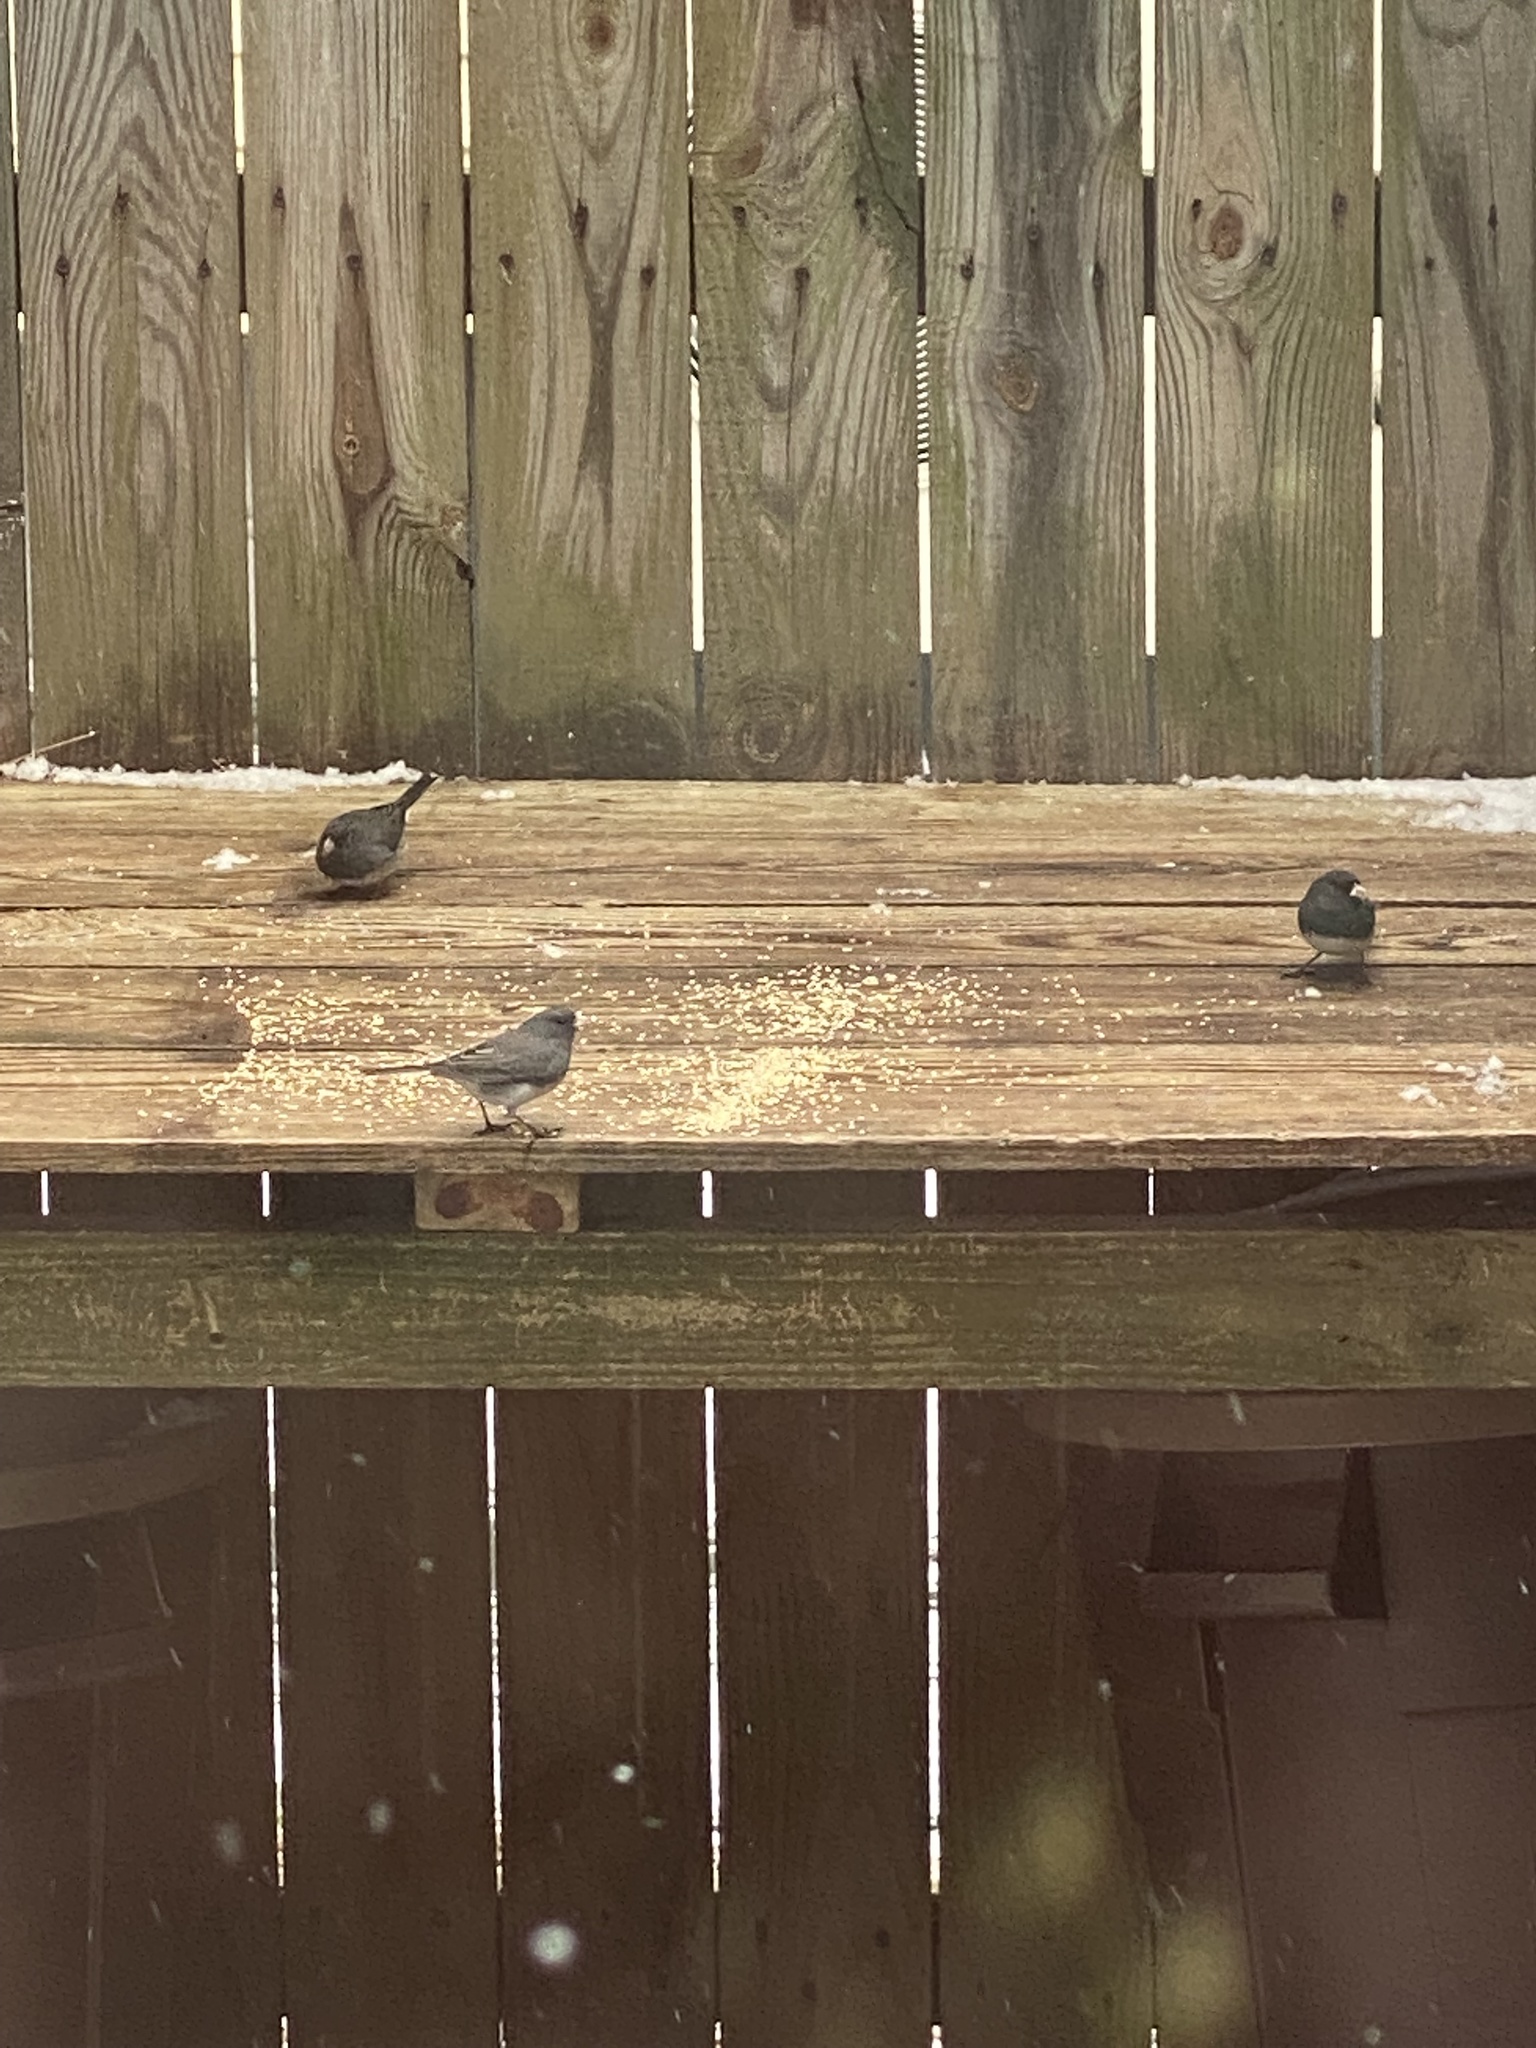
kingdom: Animalia
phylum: Chordata
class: Aves
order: Passeriformes
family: Passerellidae
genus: Junco
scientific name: Junco hyemalis
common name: Dark-eyed junco
